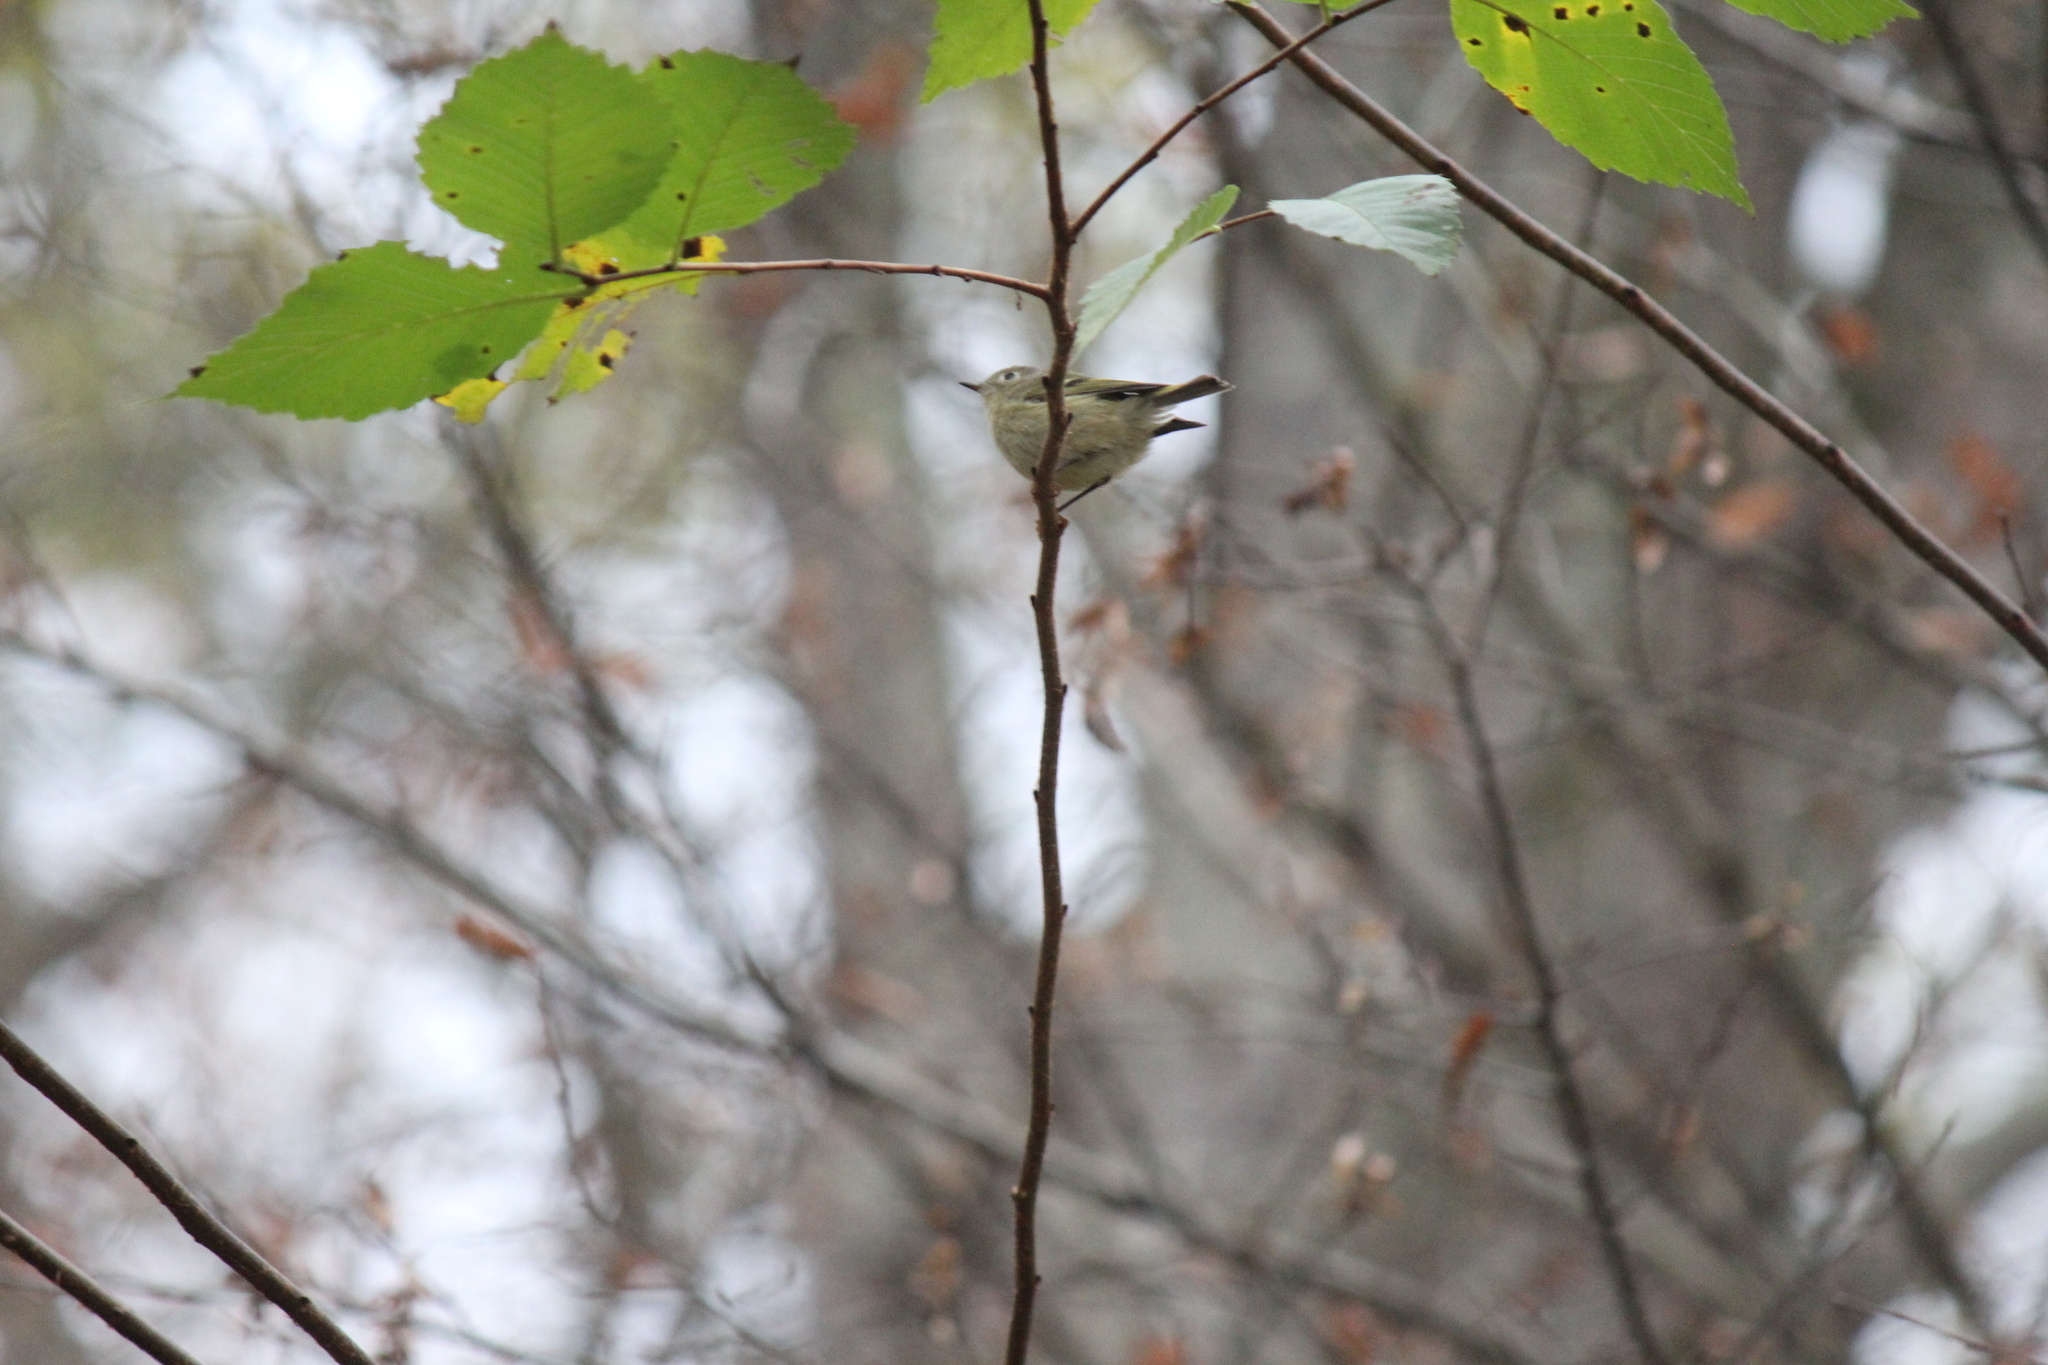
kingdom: Animalia
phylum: Chordata
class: Aves
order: Passeriformes
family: Regulidae
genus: Regulus
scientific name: Regulus calendula
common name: Ruby-crowned kinglet
